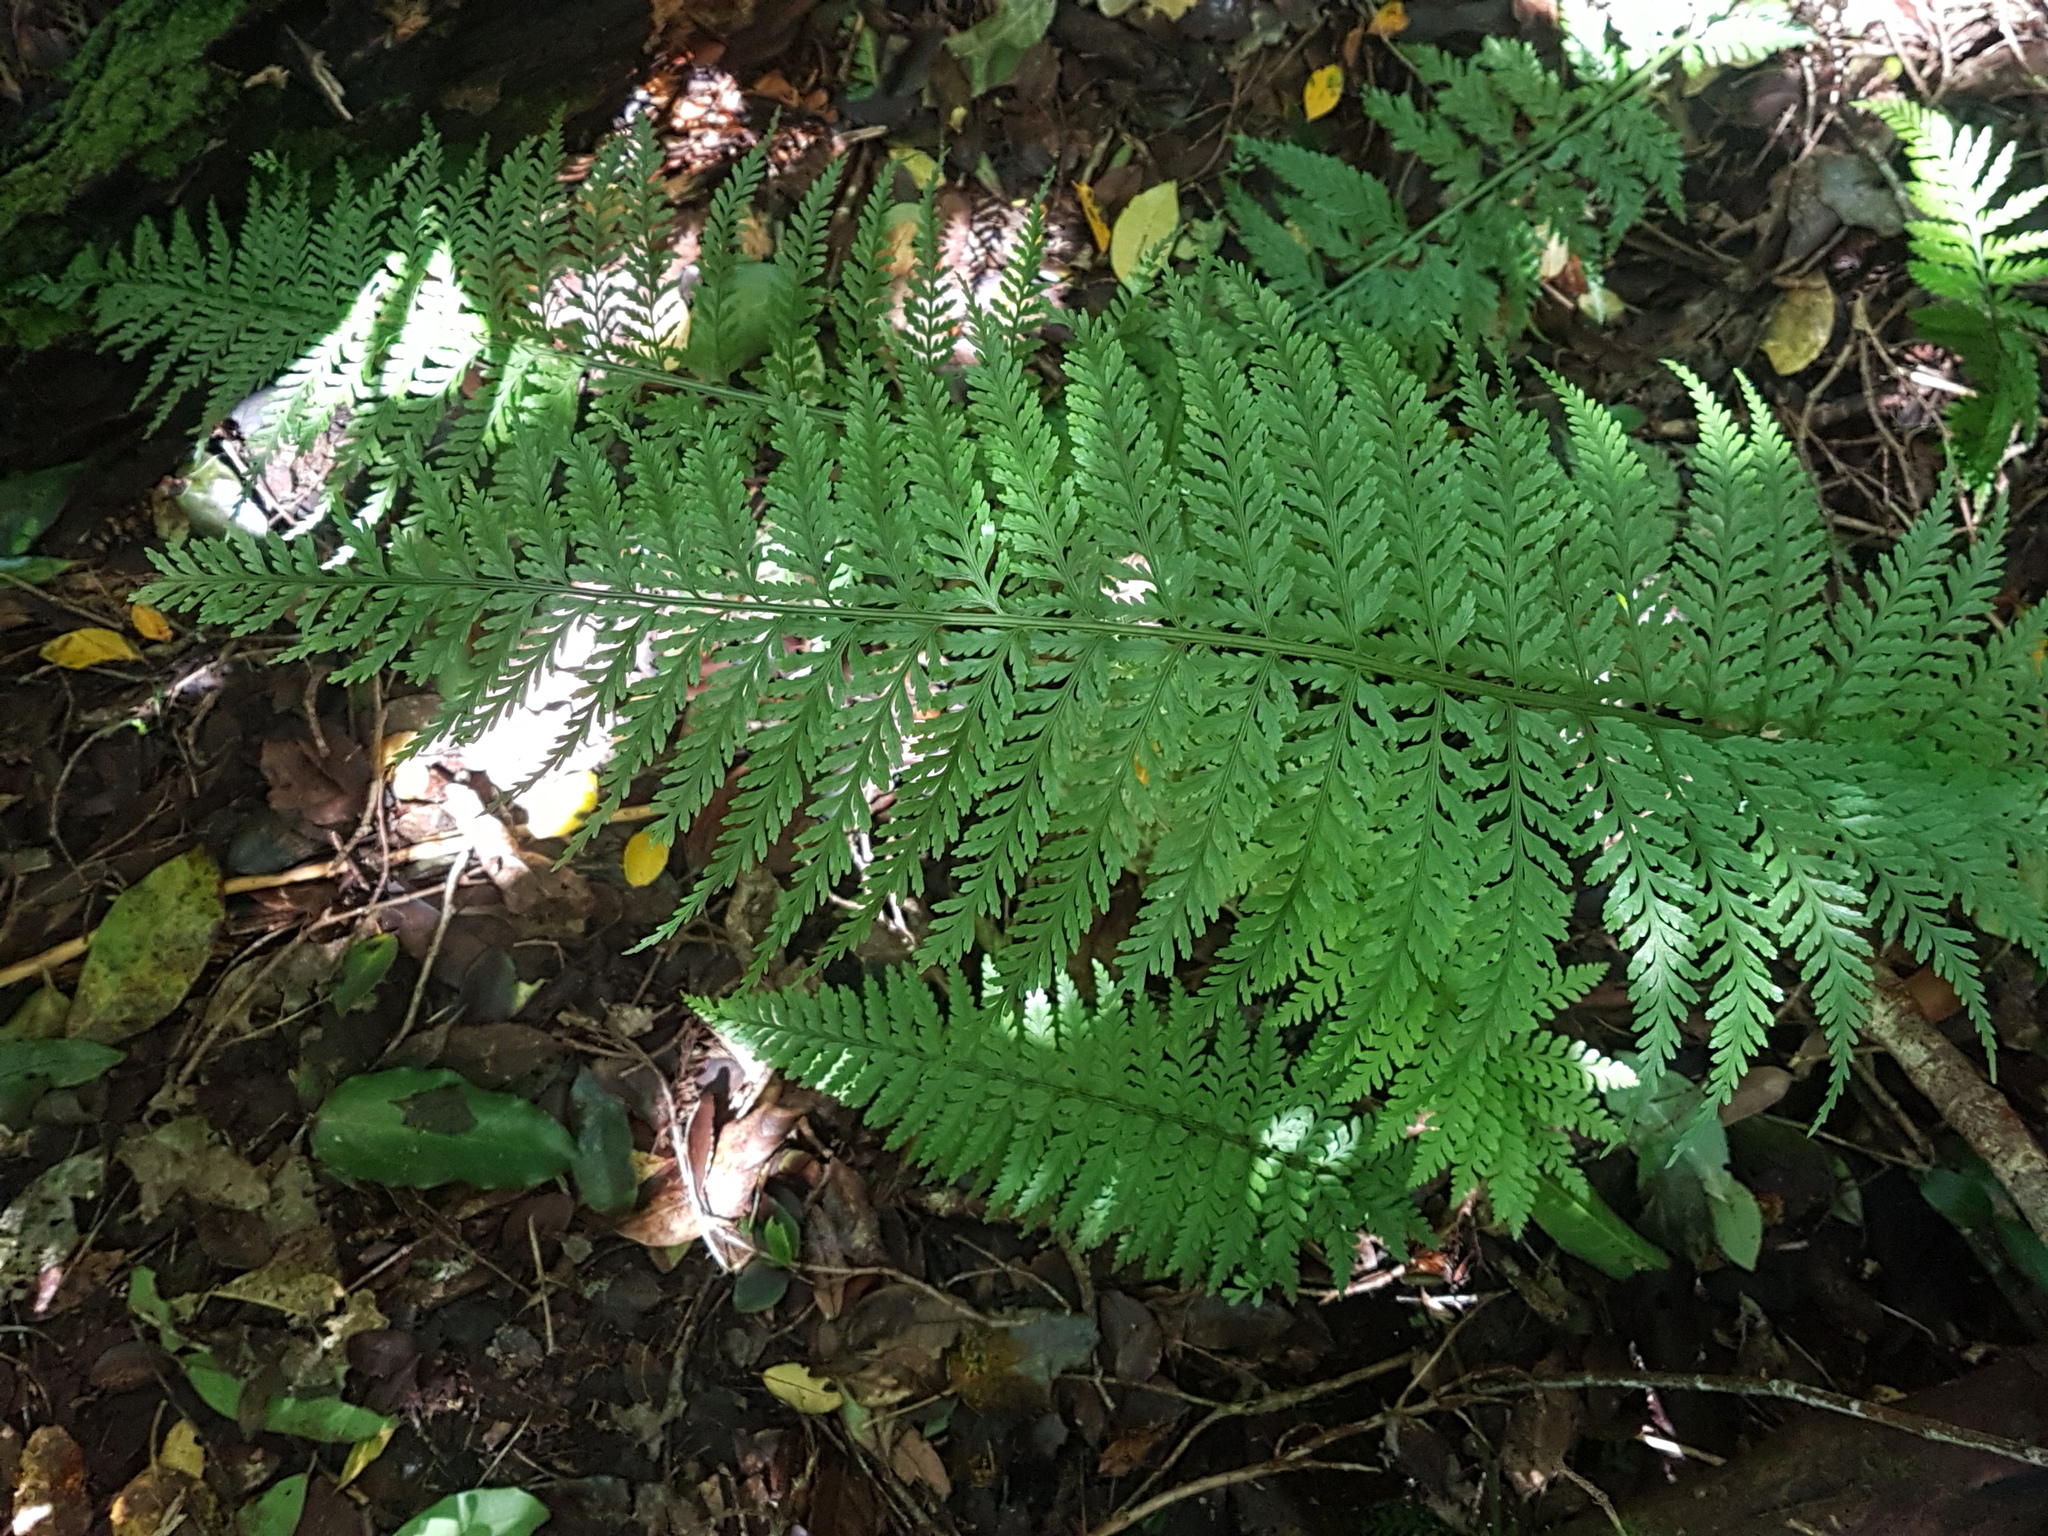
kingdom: Plantae
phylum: Tracheophyta
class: Polypodiopsida
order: Polypodiales
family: Aspleniaceae
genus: Asplenium
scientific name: Asplenium bulbiferum
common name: Mother fern
